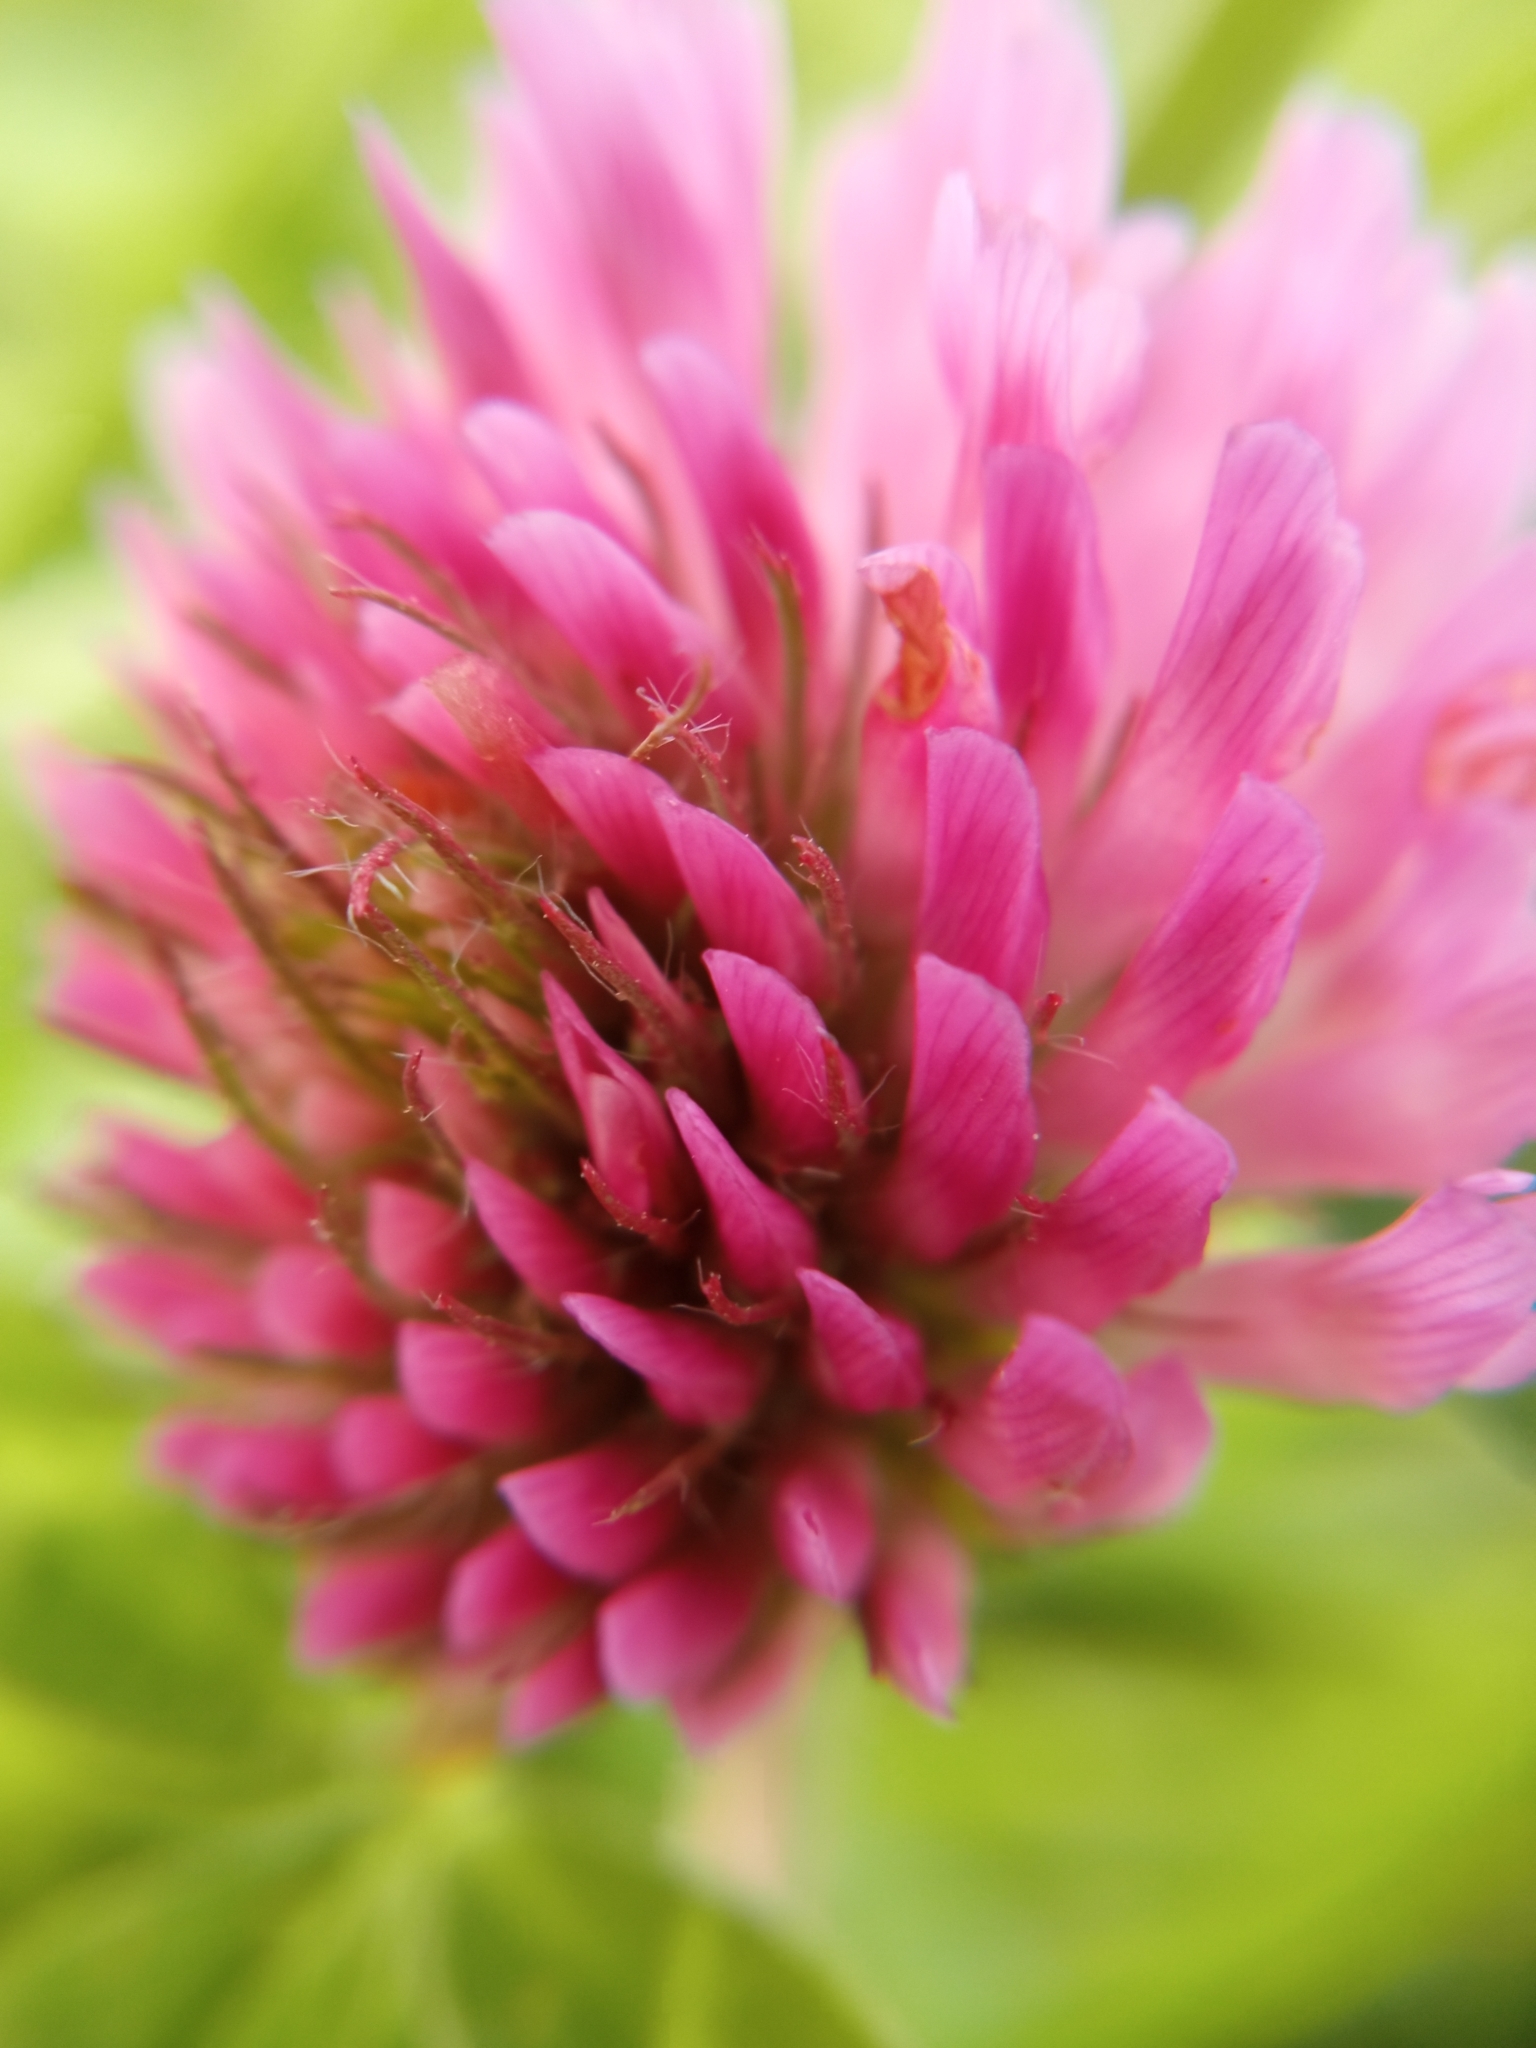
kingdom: Plantae
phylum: Tracheophyta
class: Magnoliopsida
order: Fabales
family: Fabaceae
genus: Trifolium
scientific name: Trifolium pratense
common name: Red clover
